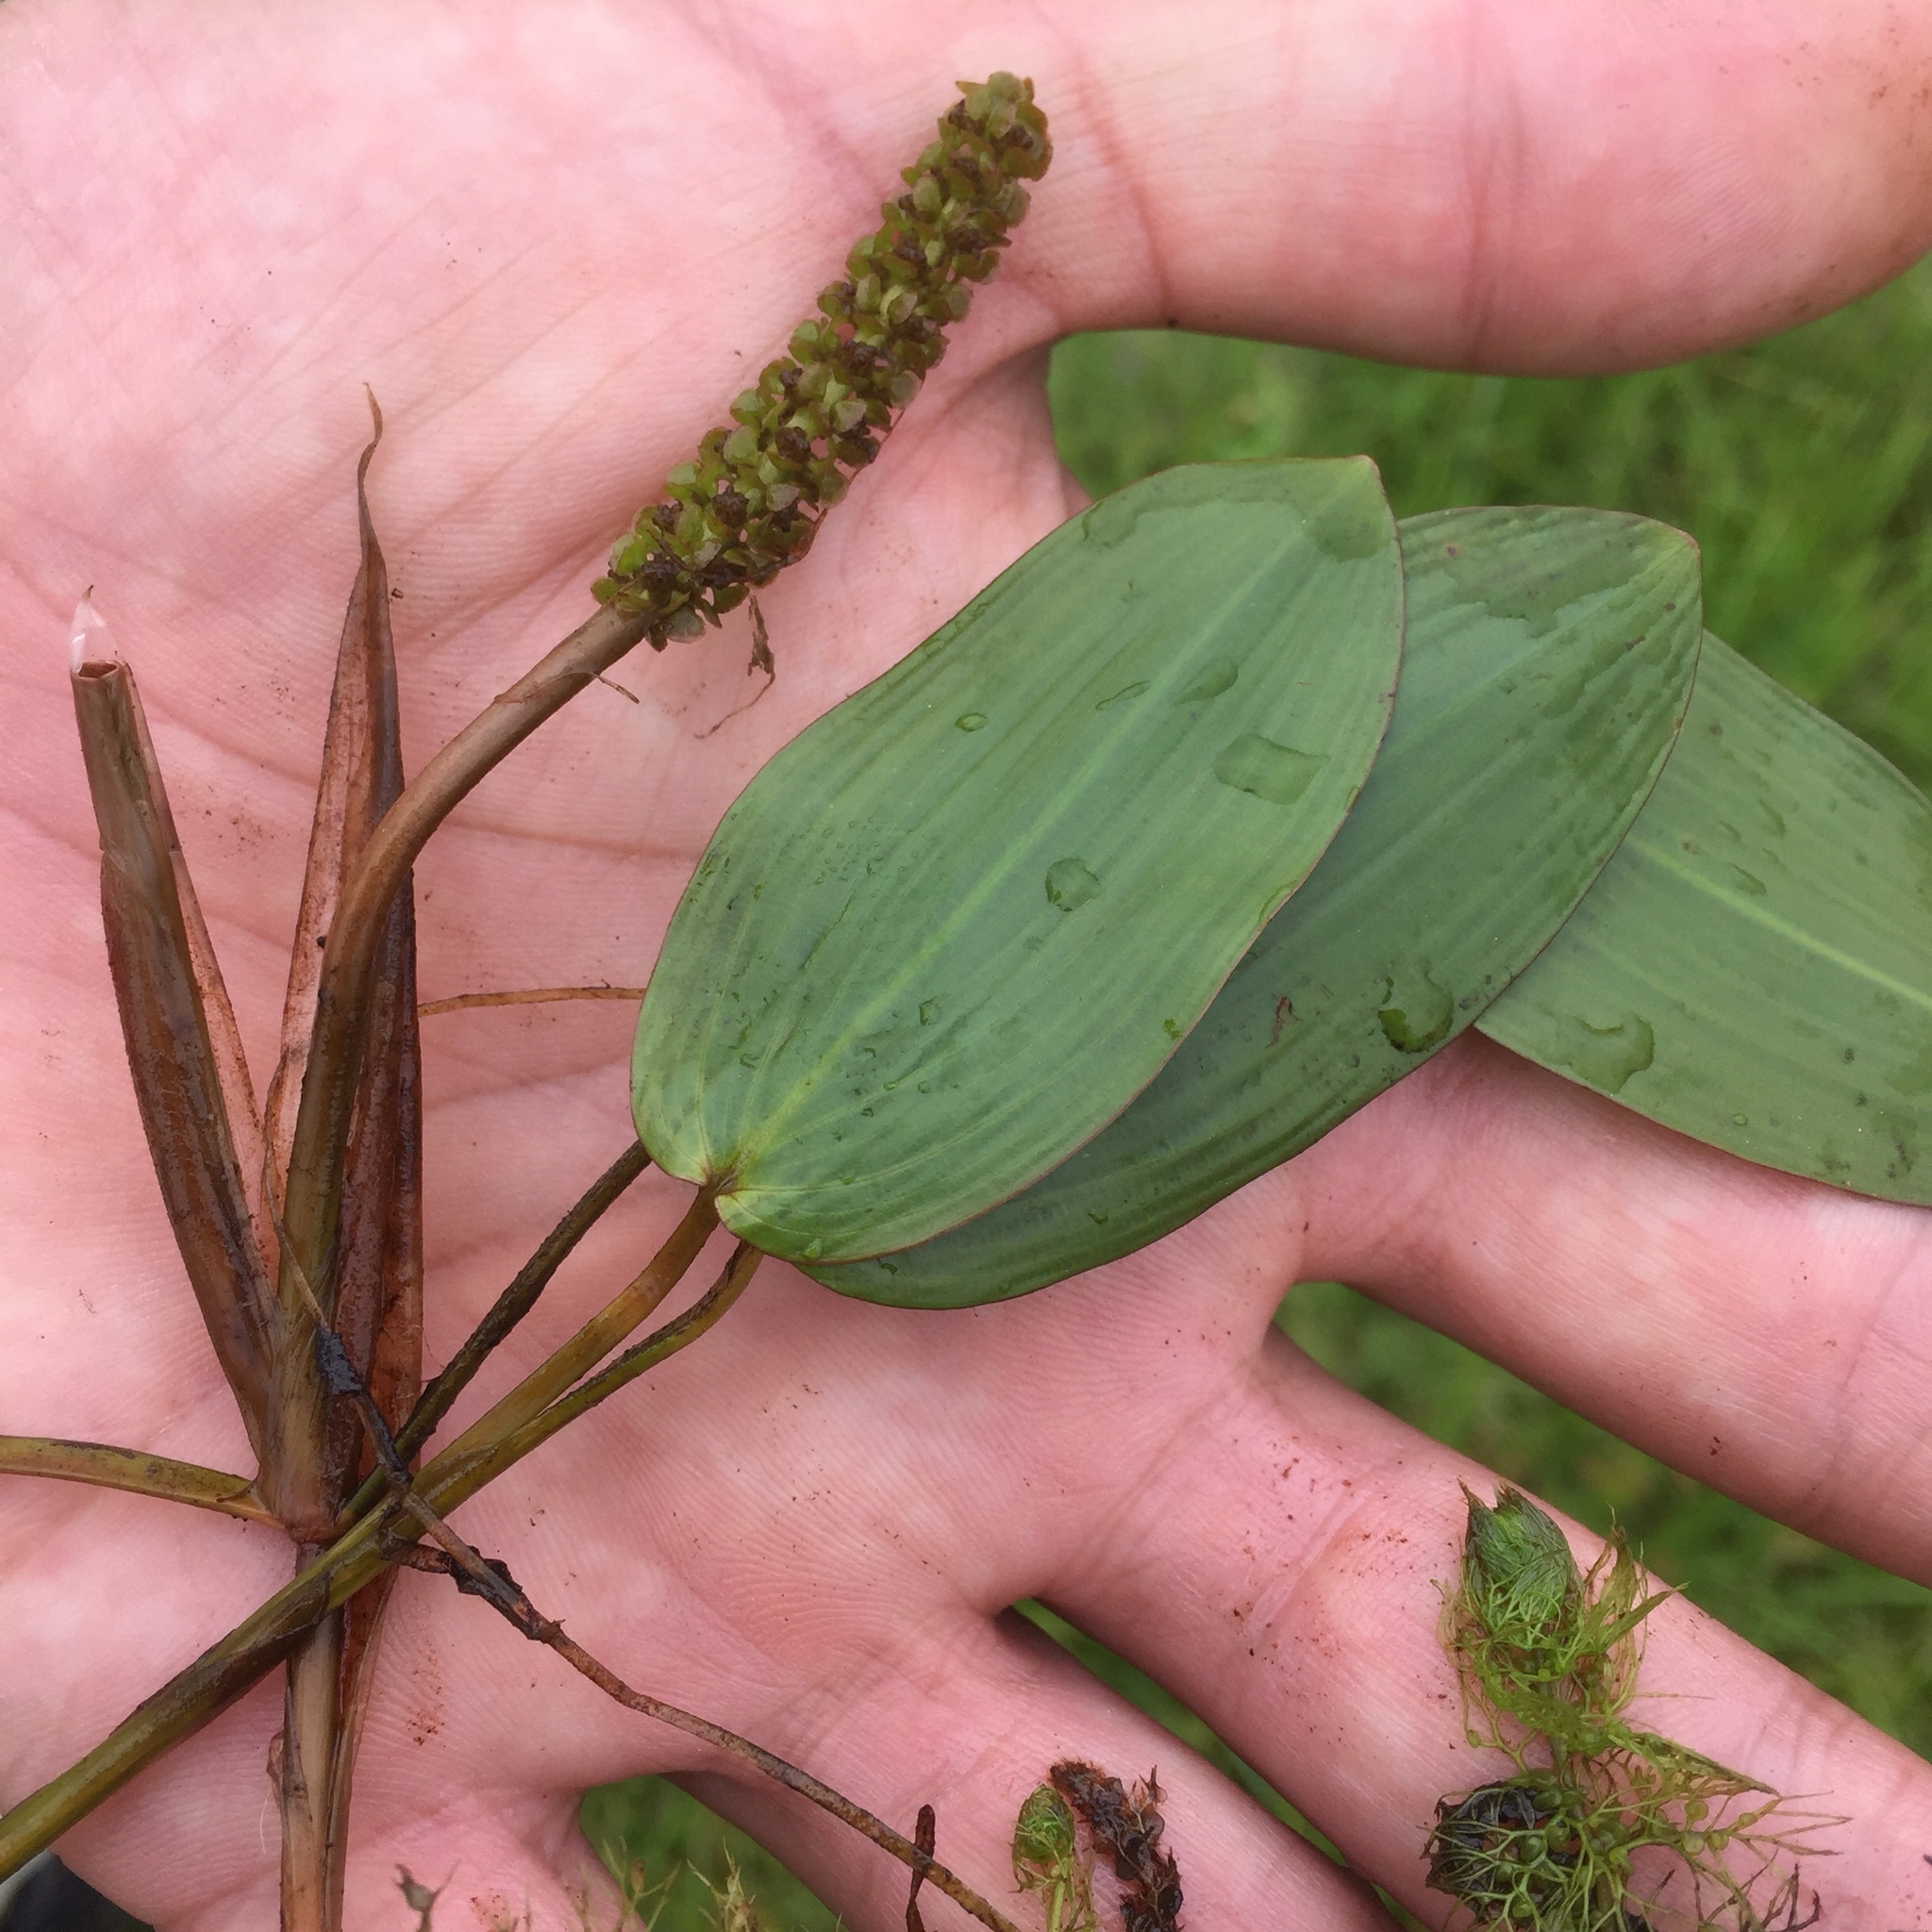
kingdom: Plantae
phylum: Tracheophyta
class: Liliopsida
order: Alismatales
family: Potamogetonaceae
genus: Potamogeton
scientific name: Potamogeton natans
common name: Broad-leaved pondweed
